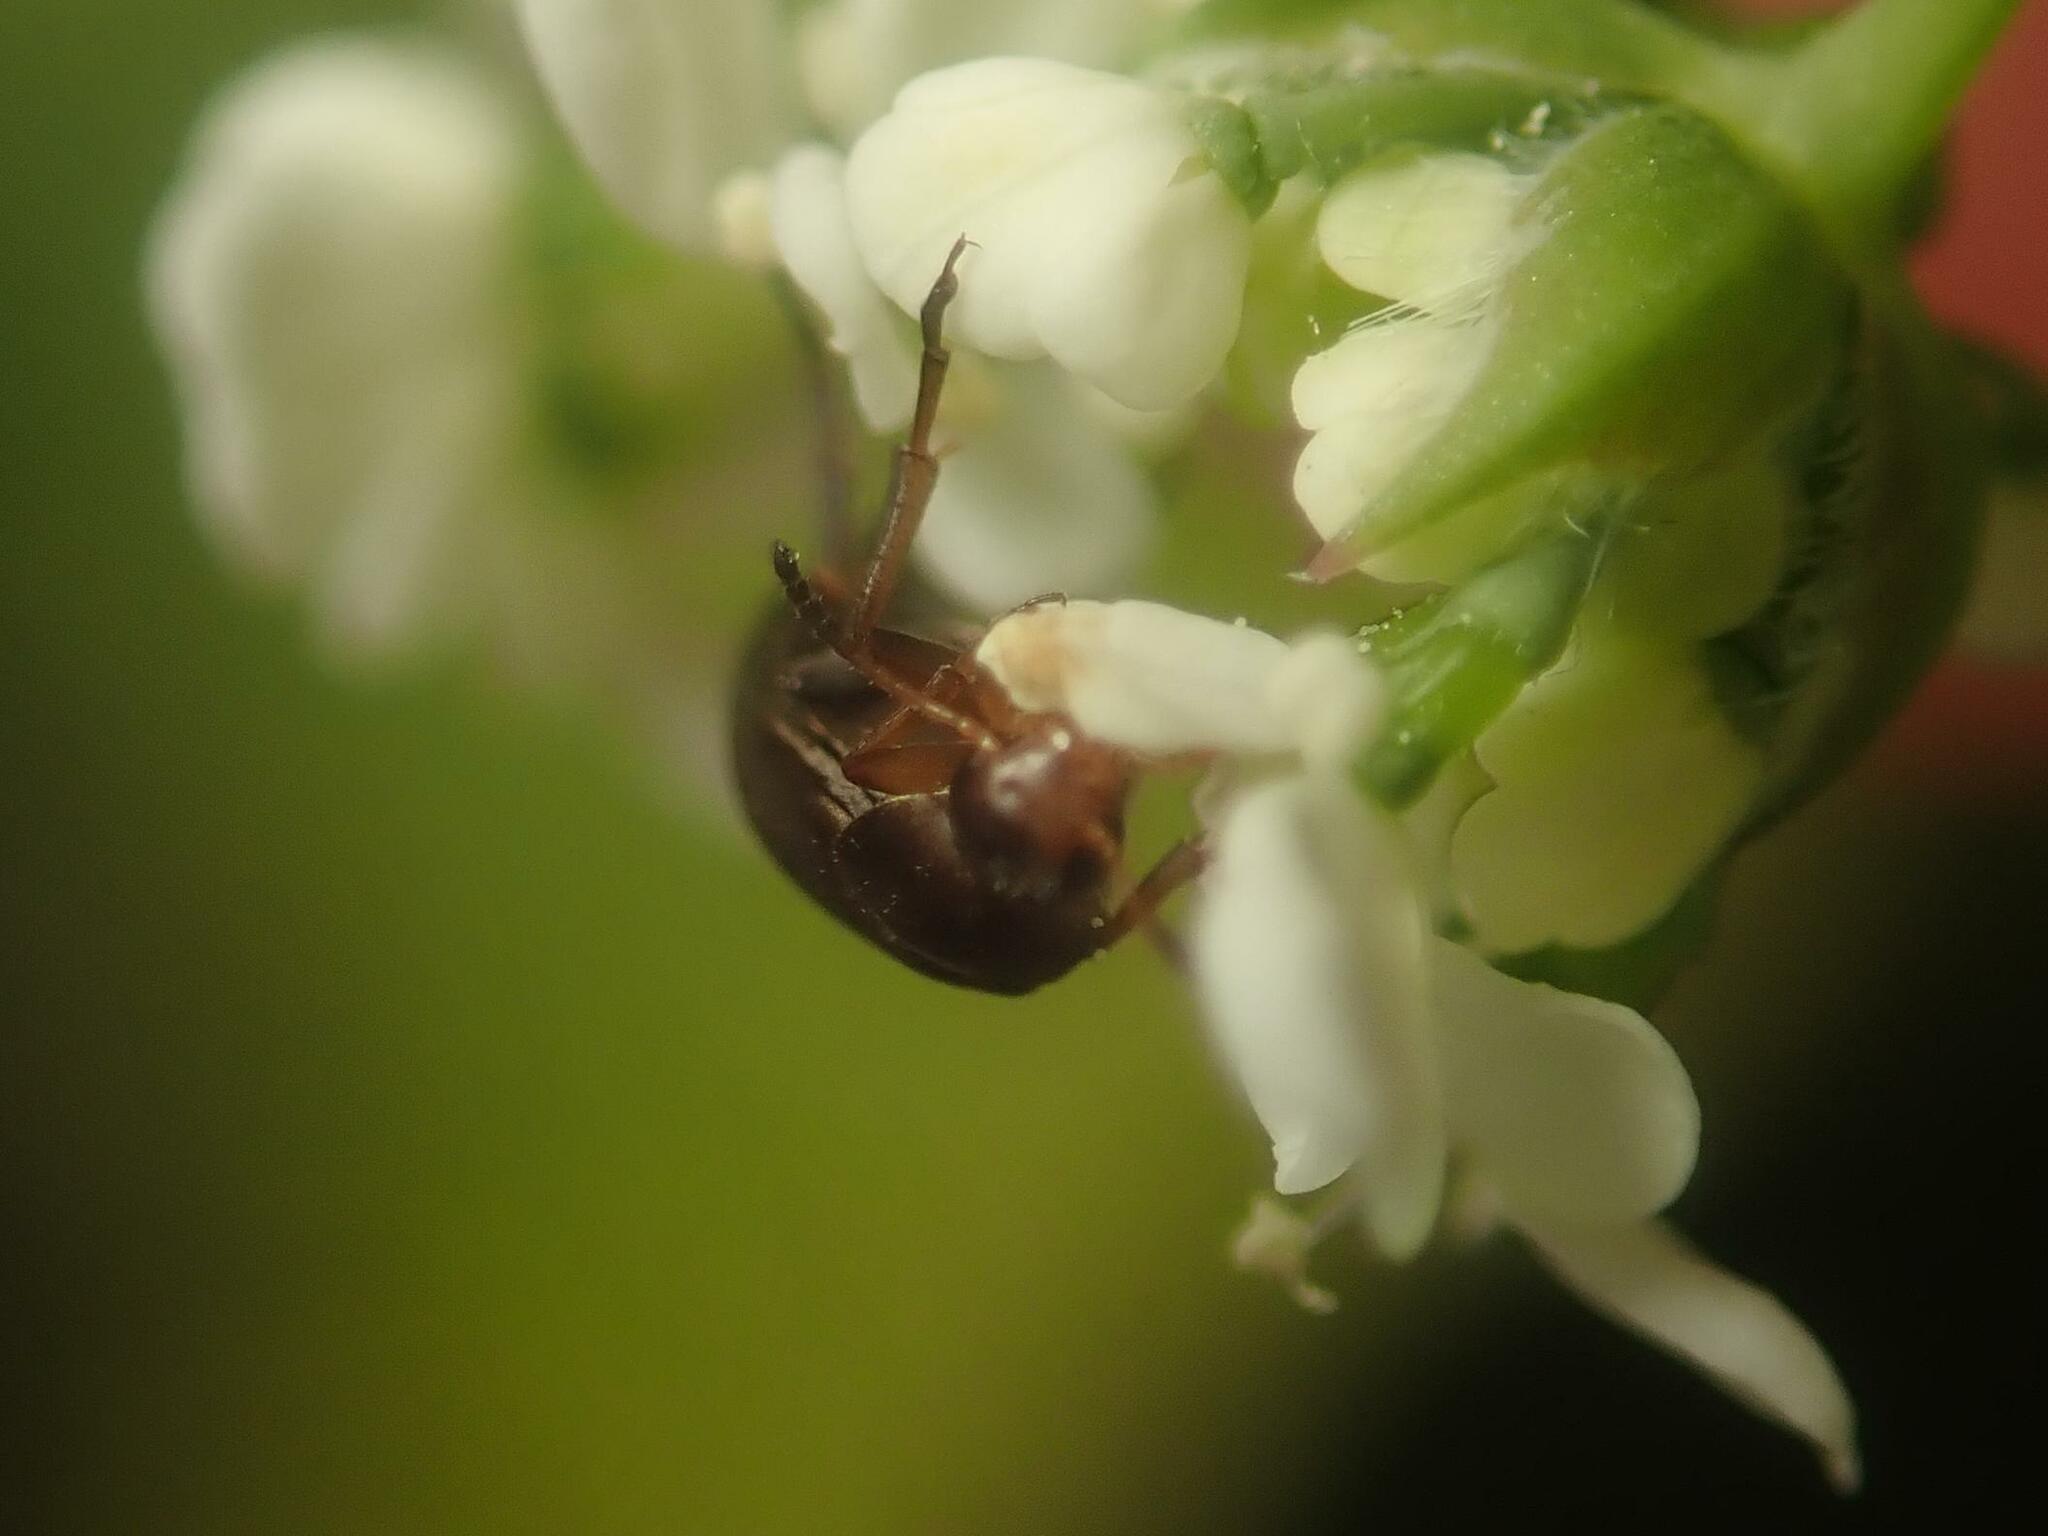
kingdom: Animalia
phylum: Arthropoda
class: Insecta
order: Coleoptera
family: Scraptiidae
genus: Anaspis
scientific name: Anaspis frontalis
